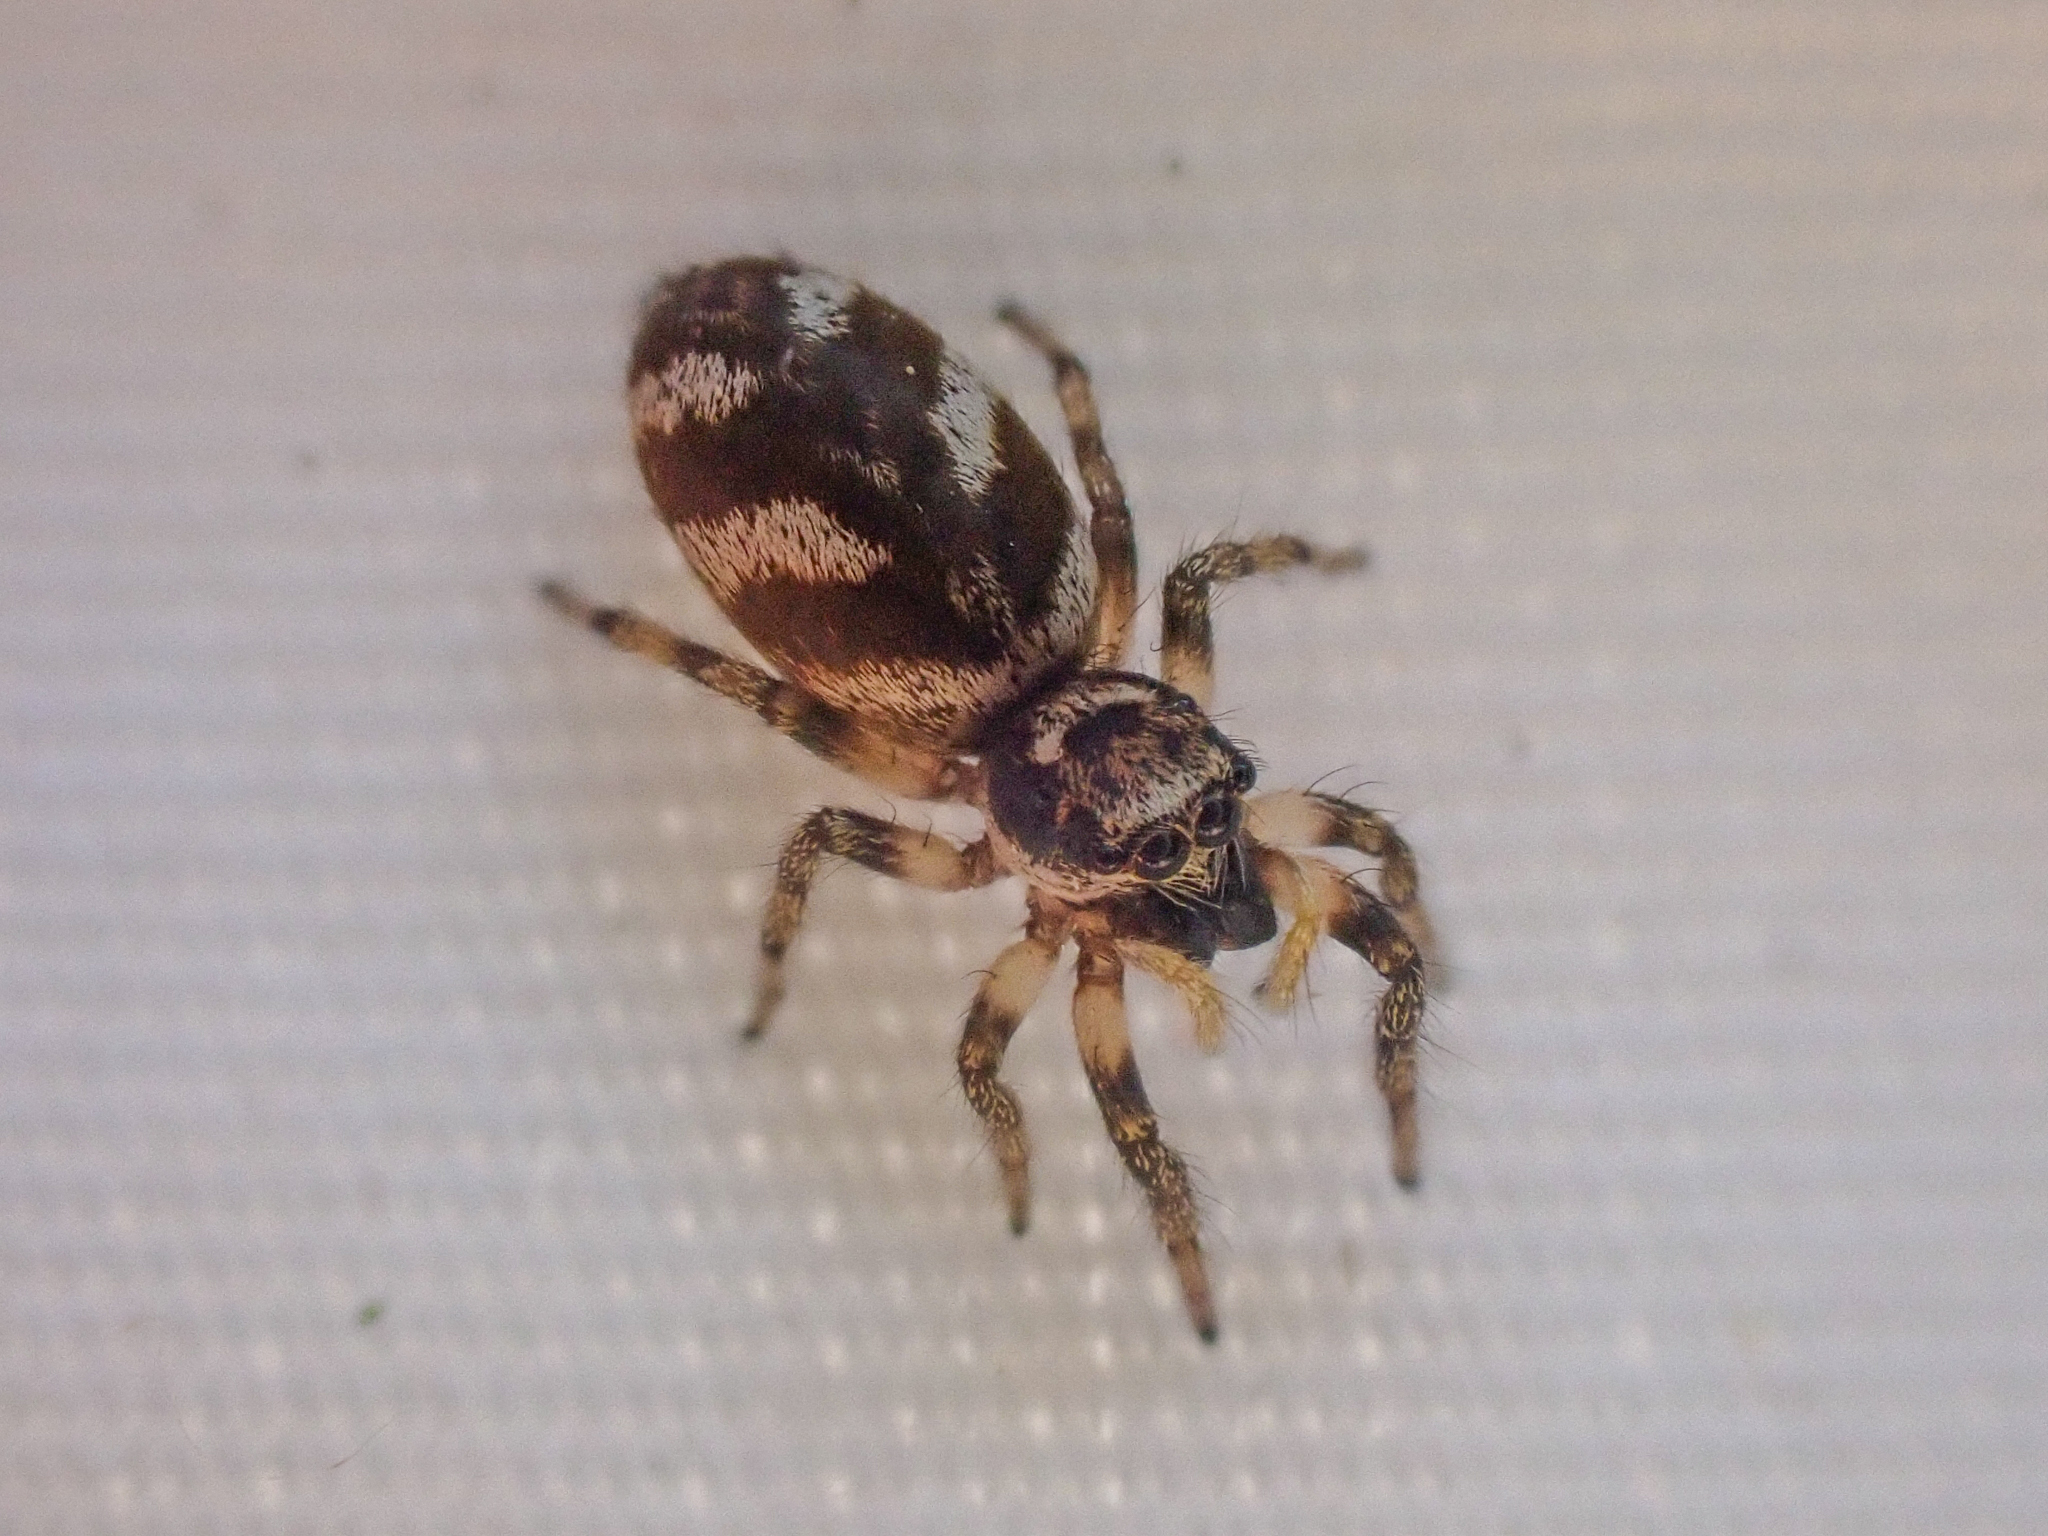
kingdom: Animalia
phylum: Arthropoda
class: Arachnida
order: Araneae
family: Salticidae
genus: Salticus
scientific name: Salticus scenicus
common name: Zebra jumper
